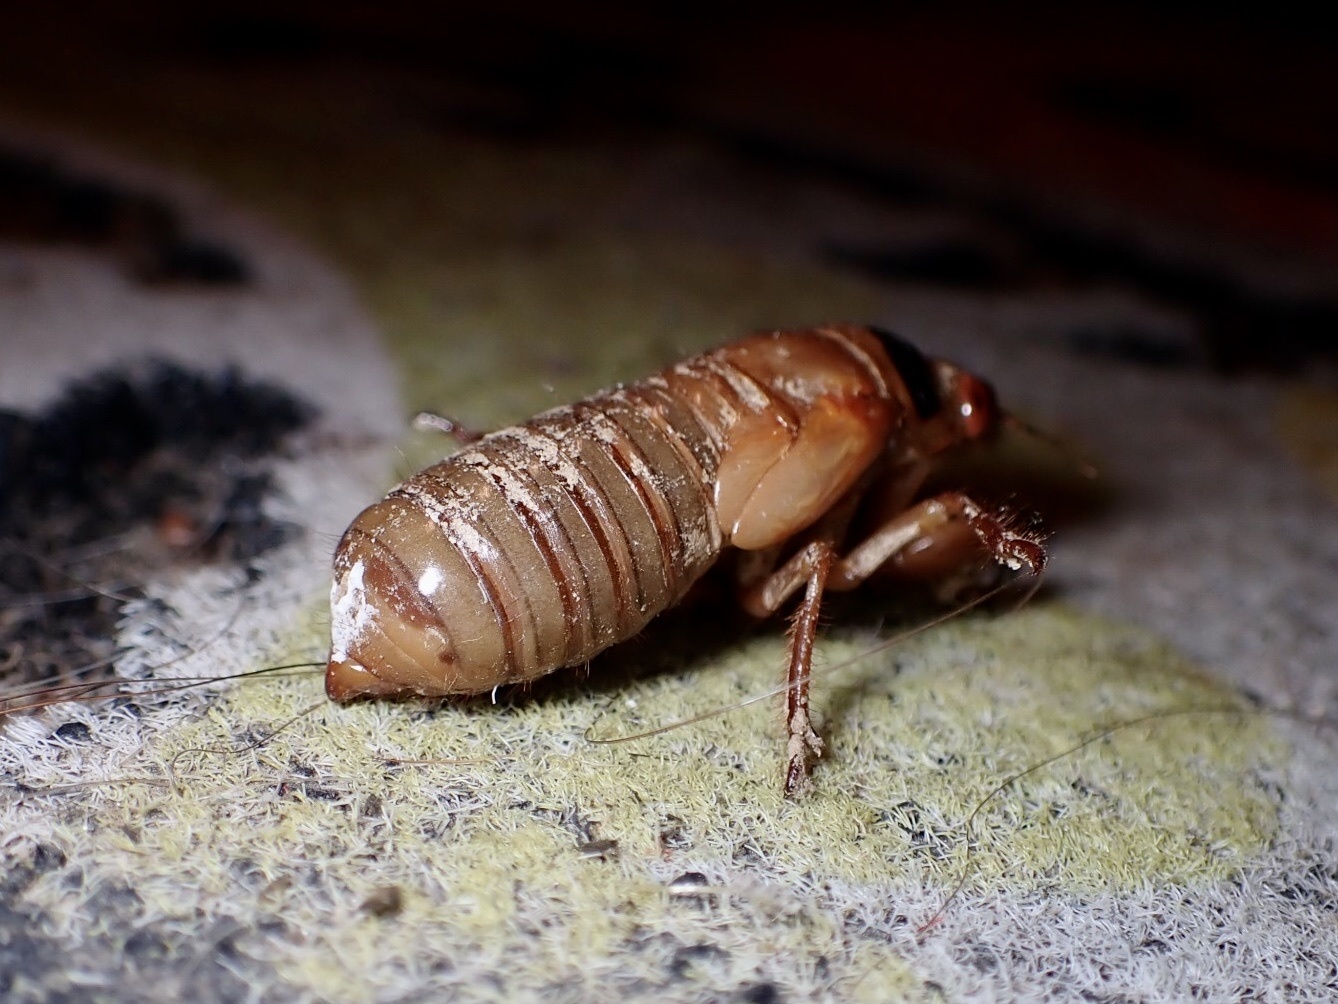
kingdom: Animalia
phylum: Arthropoda
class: Insecta
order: Hemiptera
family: Cicadidae
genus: Magicicada
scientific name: Magicicada
